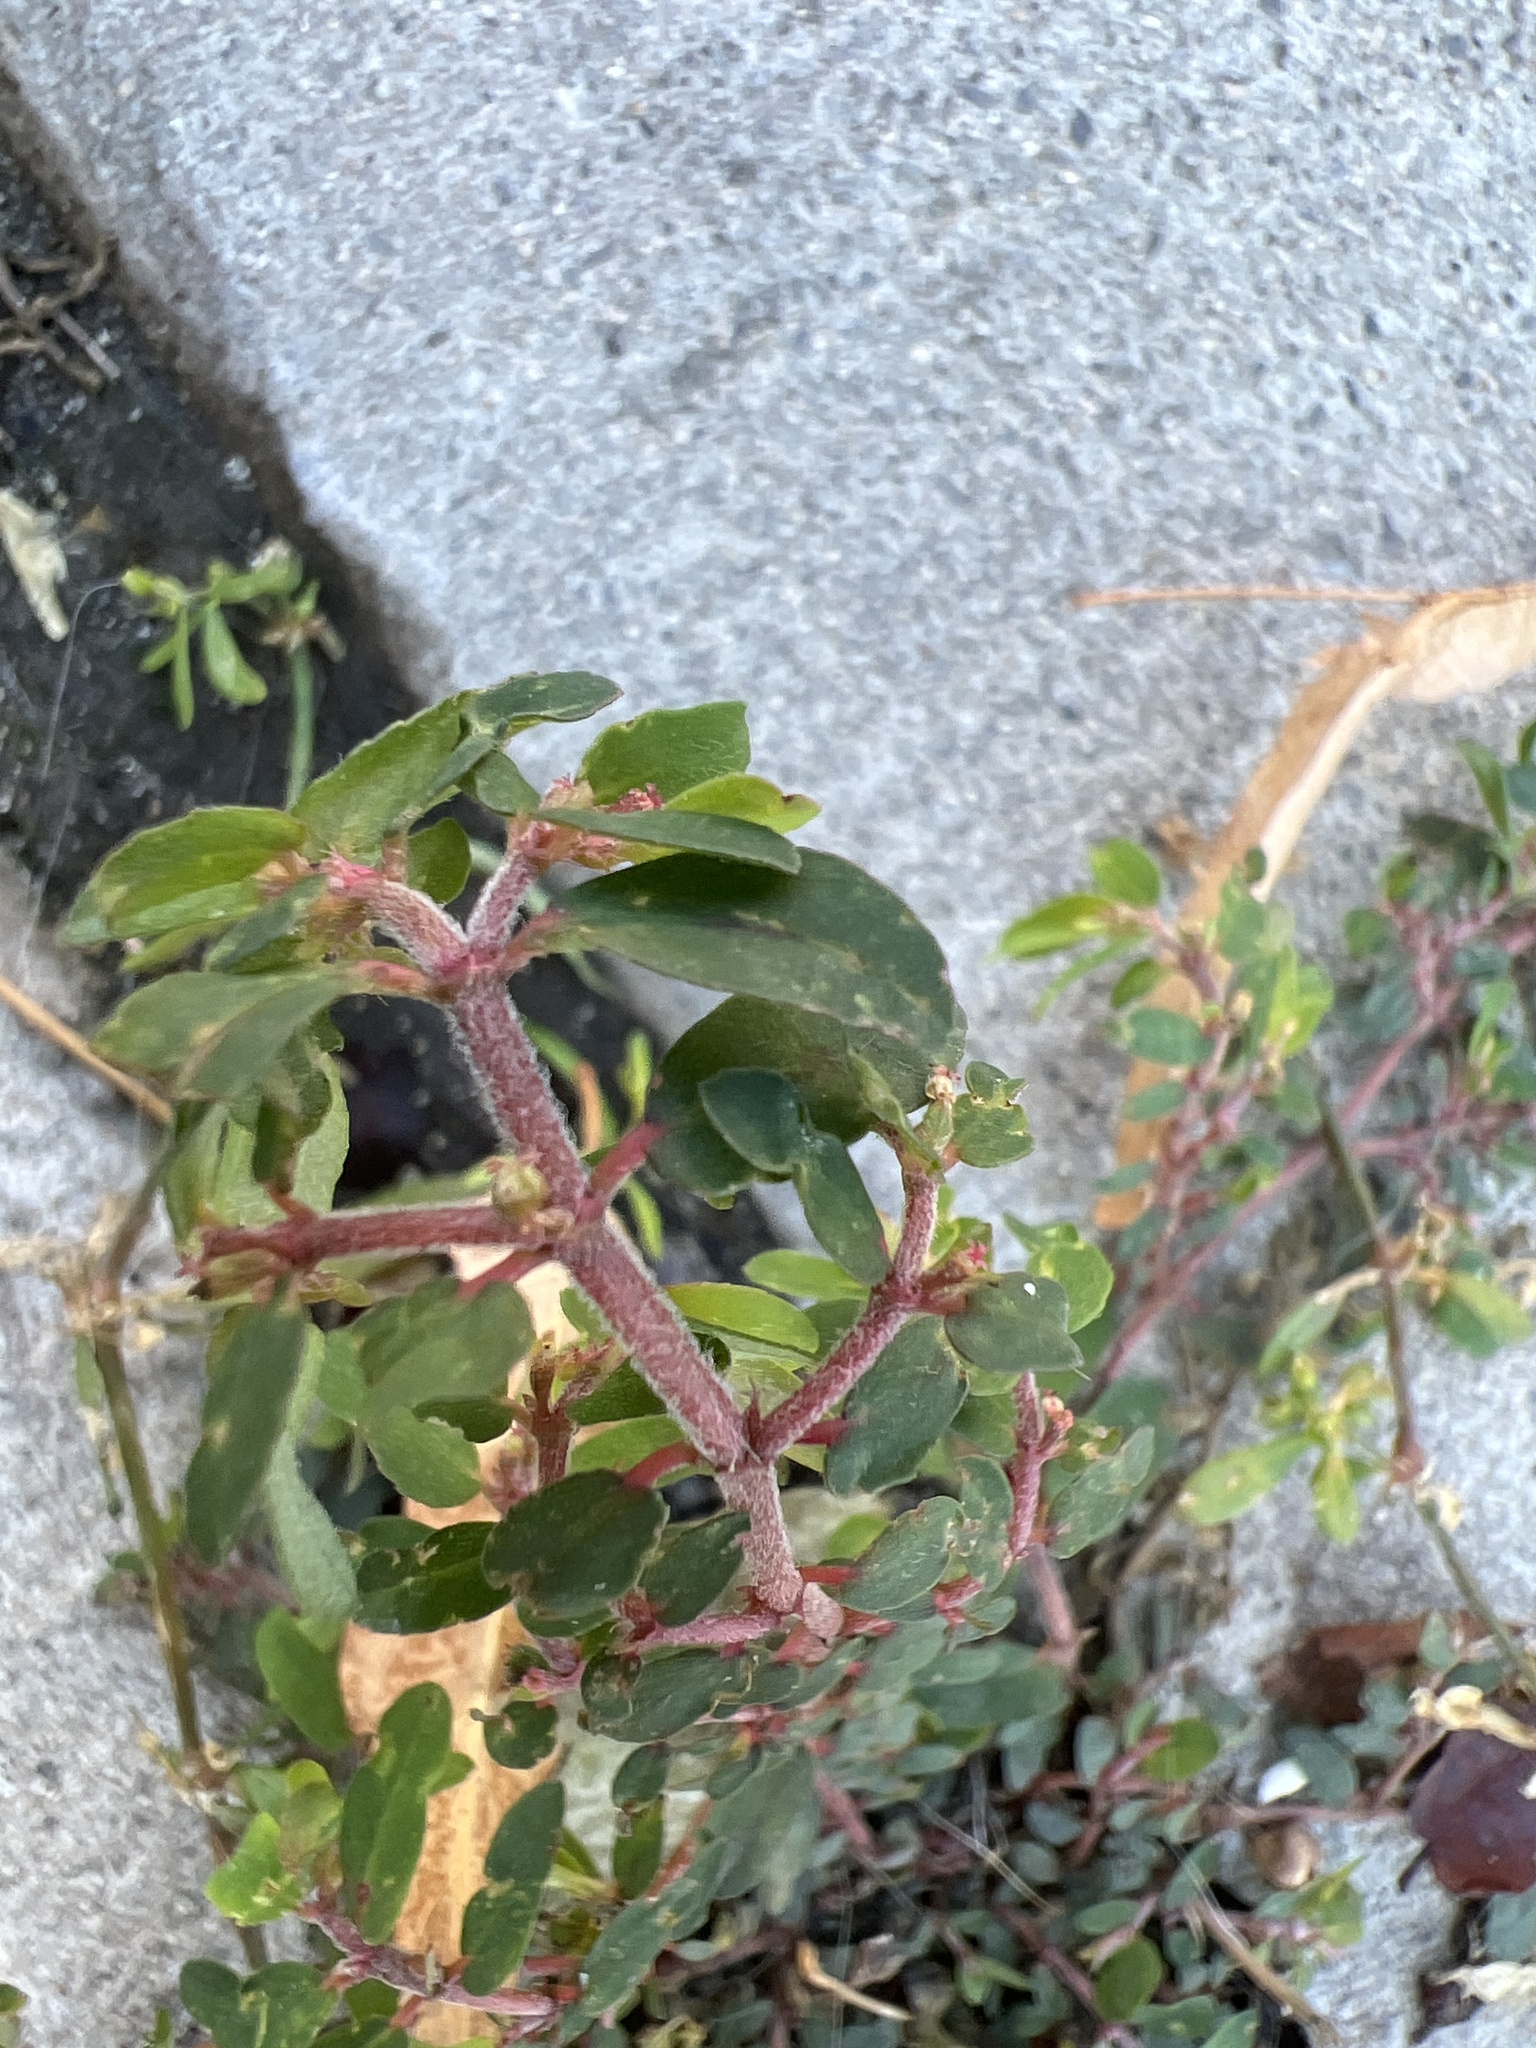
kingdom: Plantae
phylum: Tracheophyta
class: Magnoliopsida
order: Malpighiales
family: Euphorbiaceae
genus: Euphorbia
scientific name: Euphorbia maculata
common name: Spotted spurge
